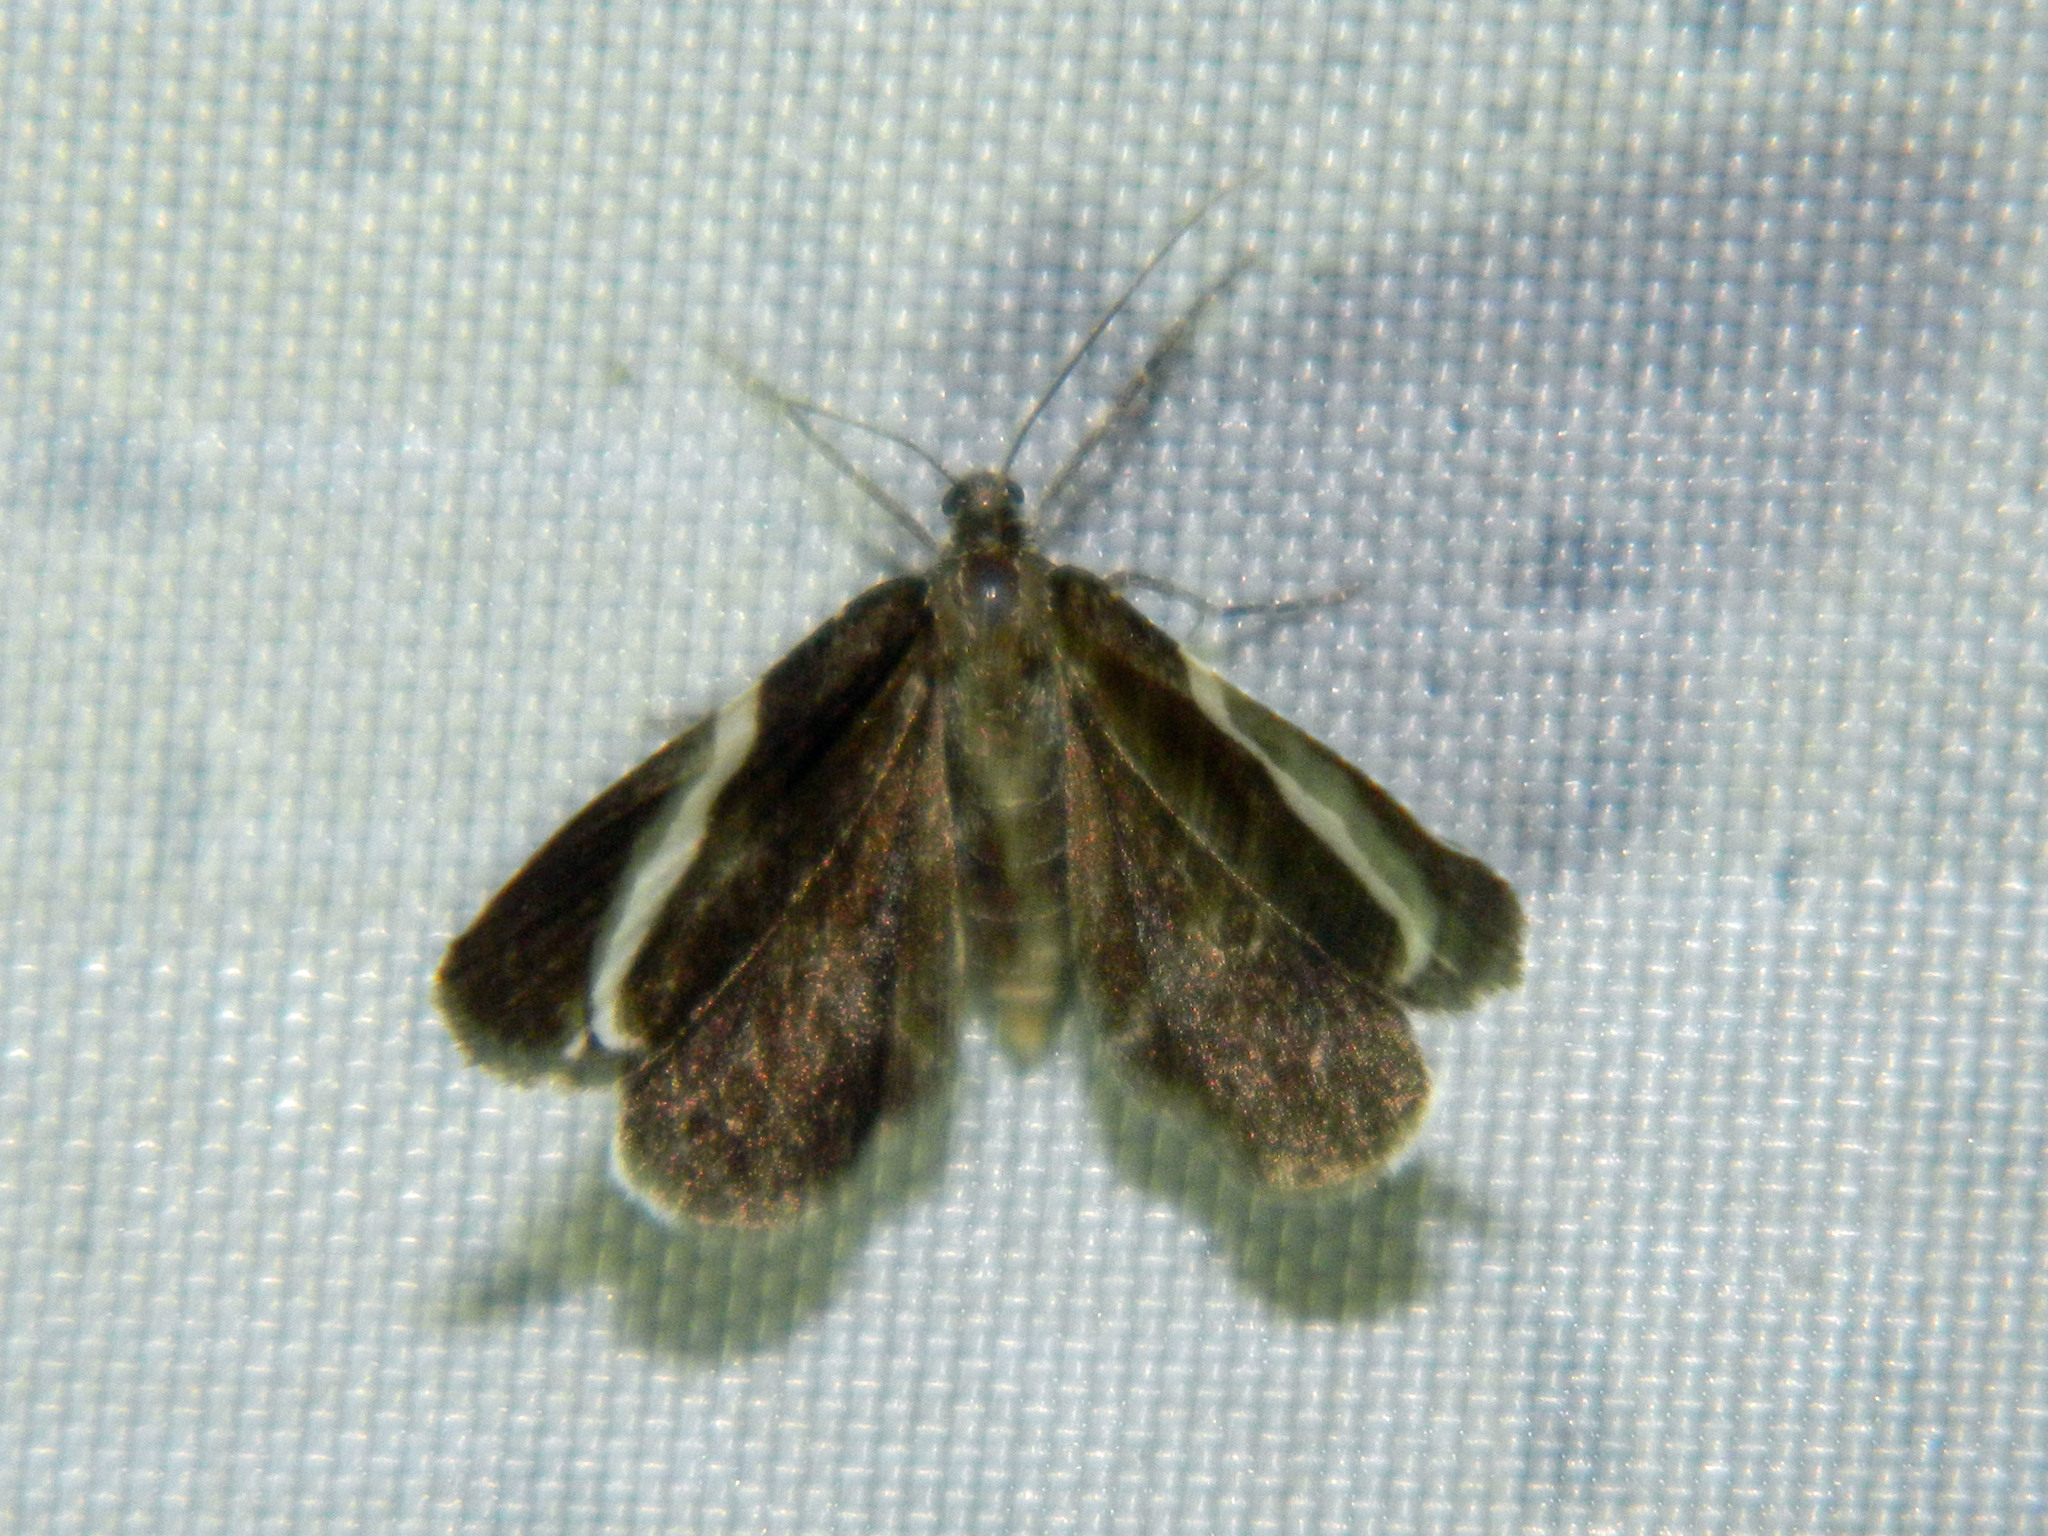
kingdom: Animalia
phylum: Arthropoda
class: Insecta
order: Lepidoptera
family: Geometridae
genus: Trichodezia
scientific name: Trichodezia albovittata
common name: White striped black
